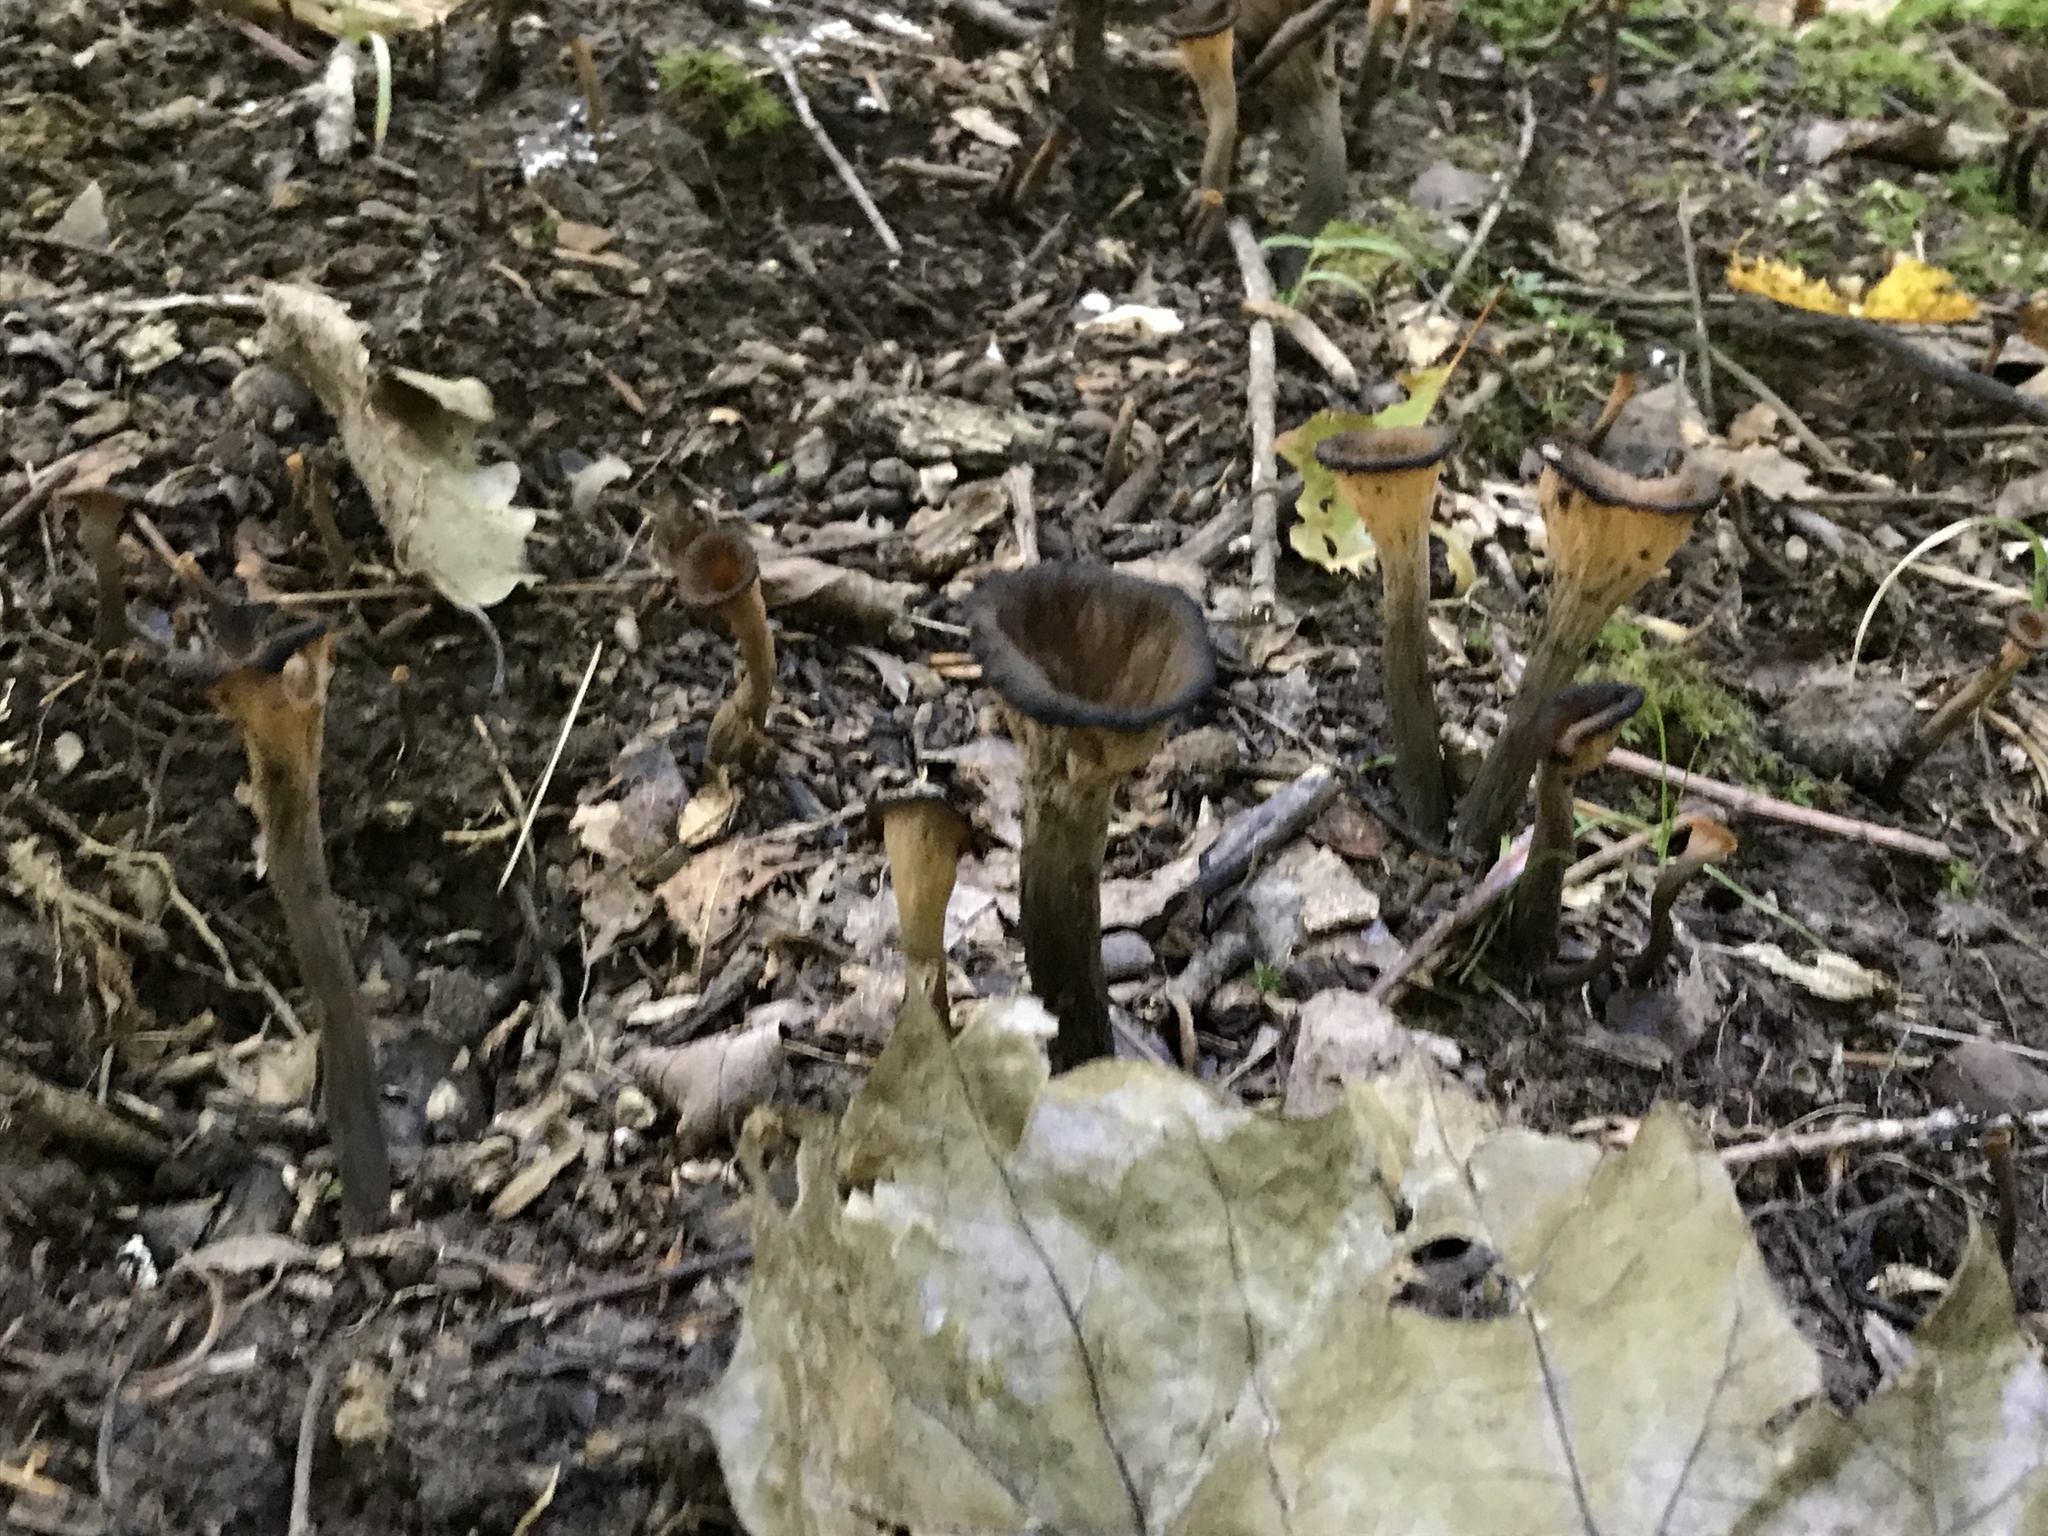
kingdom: Fungi
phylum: Basidiomycota
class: Agaricomycetes
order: Cantharellales
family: Hydnaceae
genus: Craterellus
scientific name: Craterellus cornucopioides
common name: Horn of plenty
